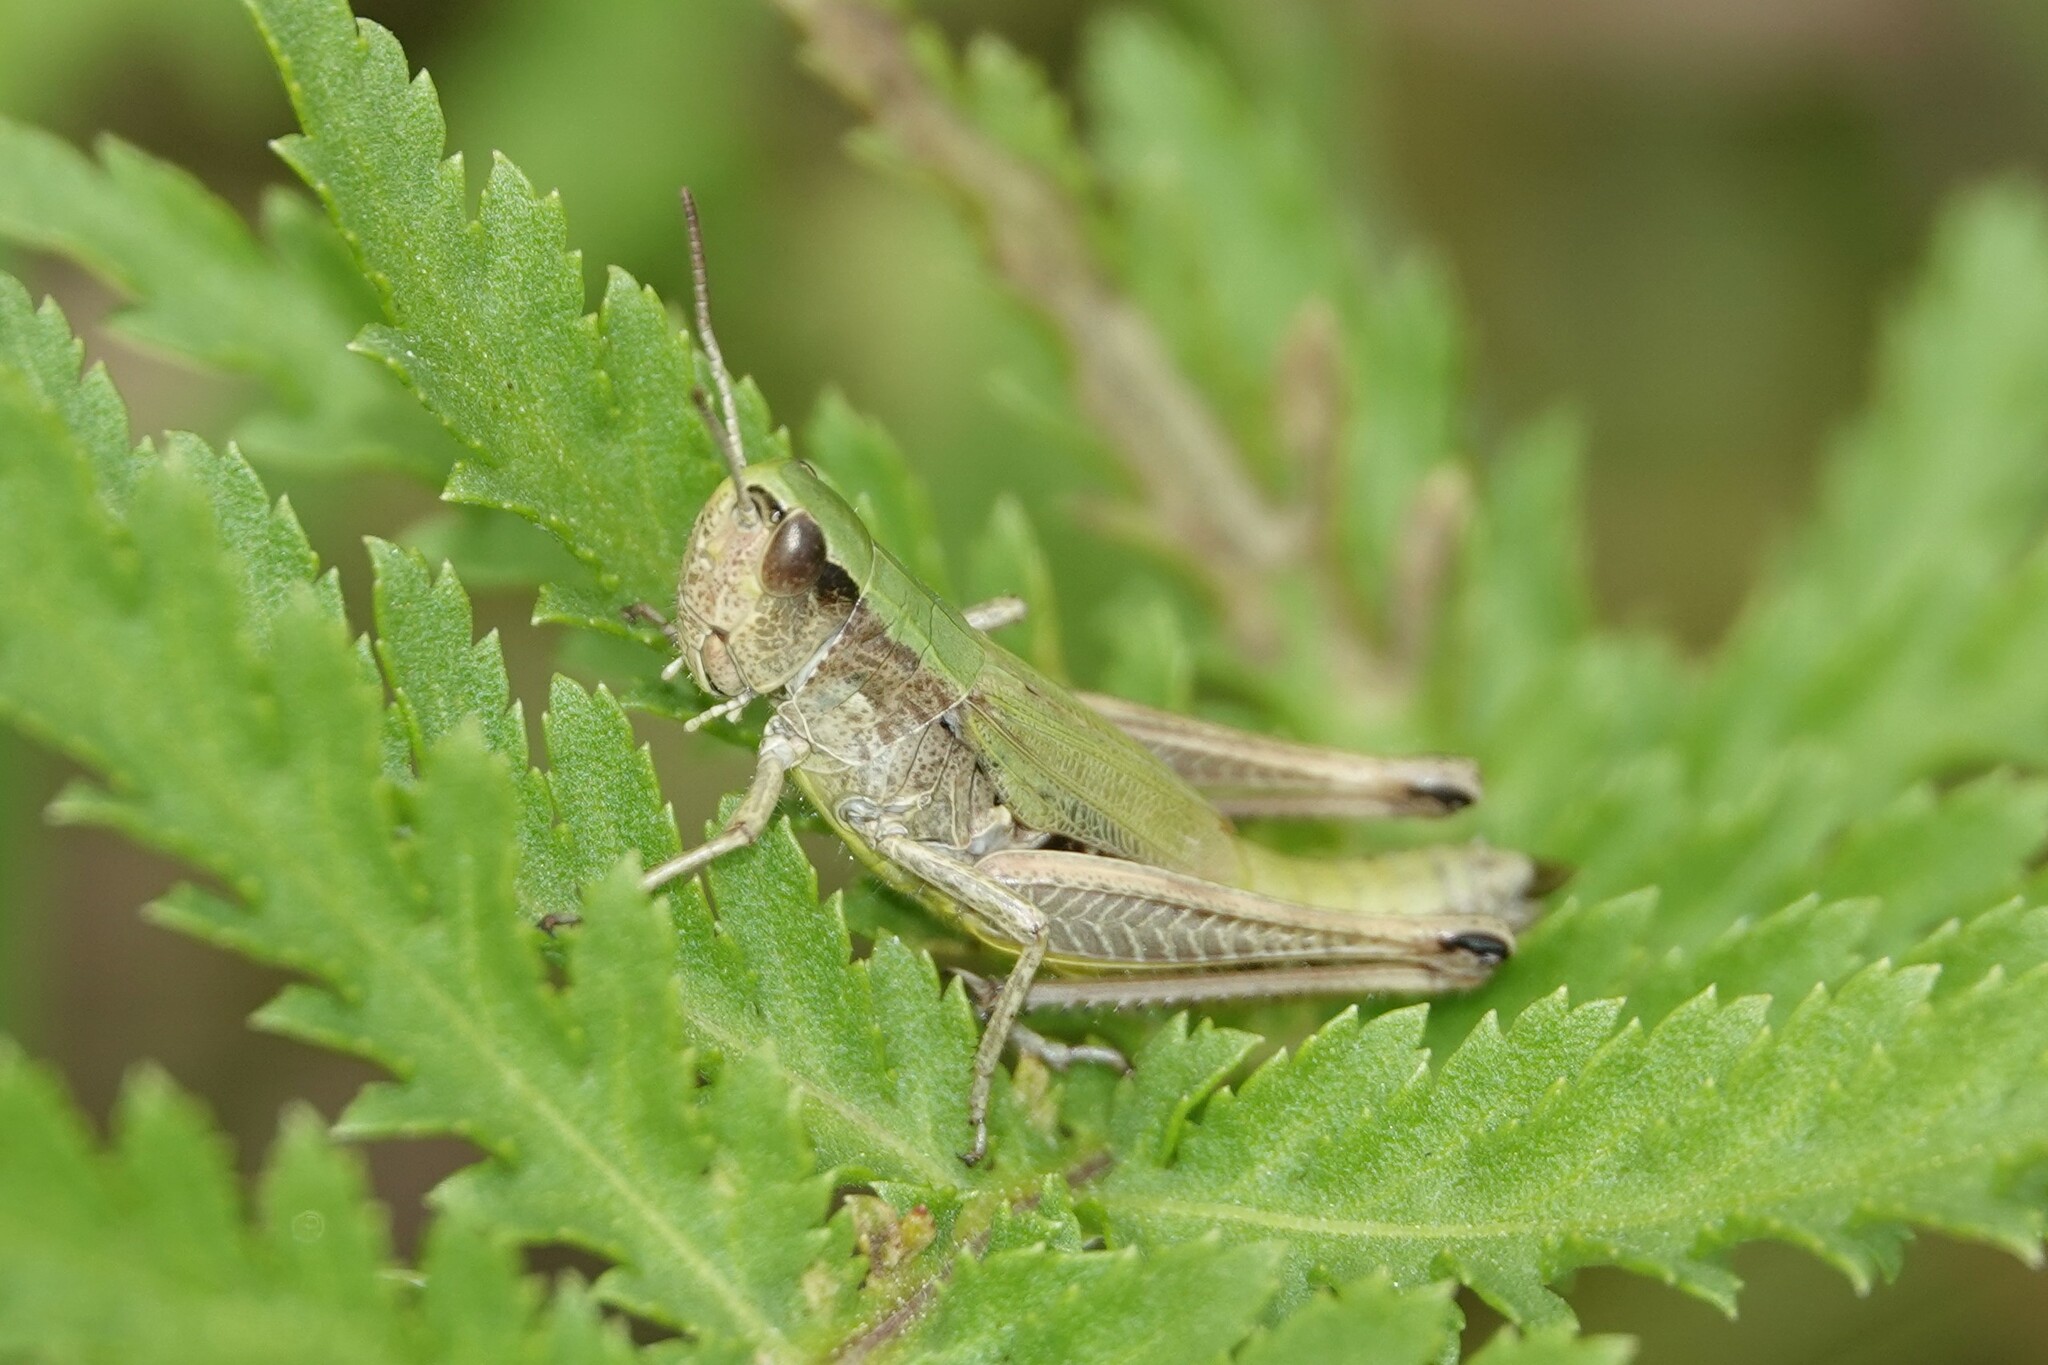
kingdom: Animalia
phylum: Arthropoda
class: Insecta
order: Orthoptera
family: Acrididae
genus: Pseudochorthippus
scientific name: Pseudochorthippus parallelus
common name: Meadow grasshopper
